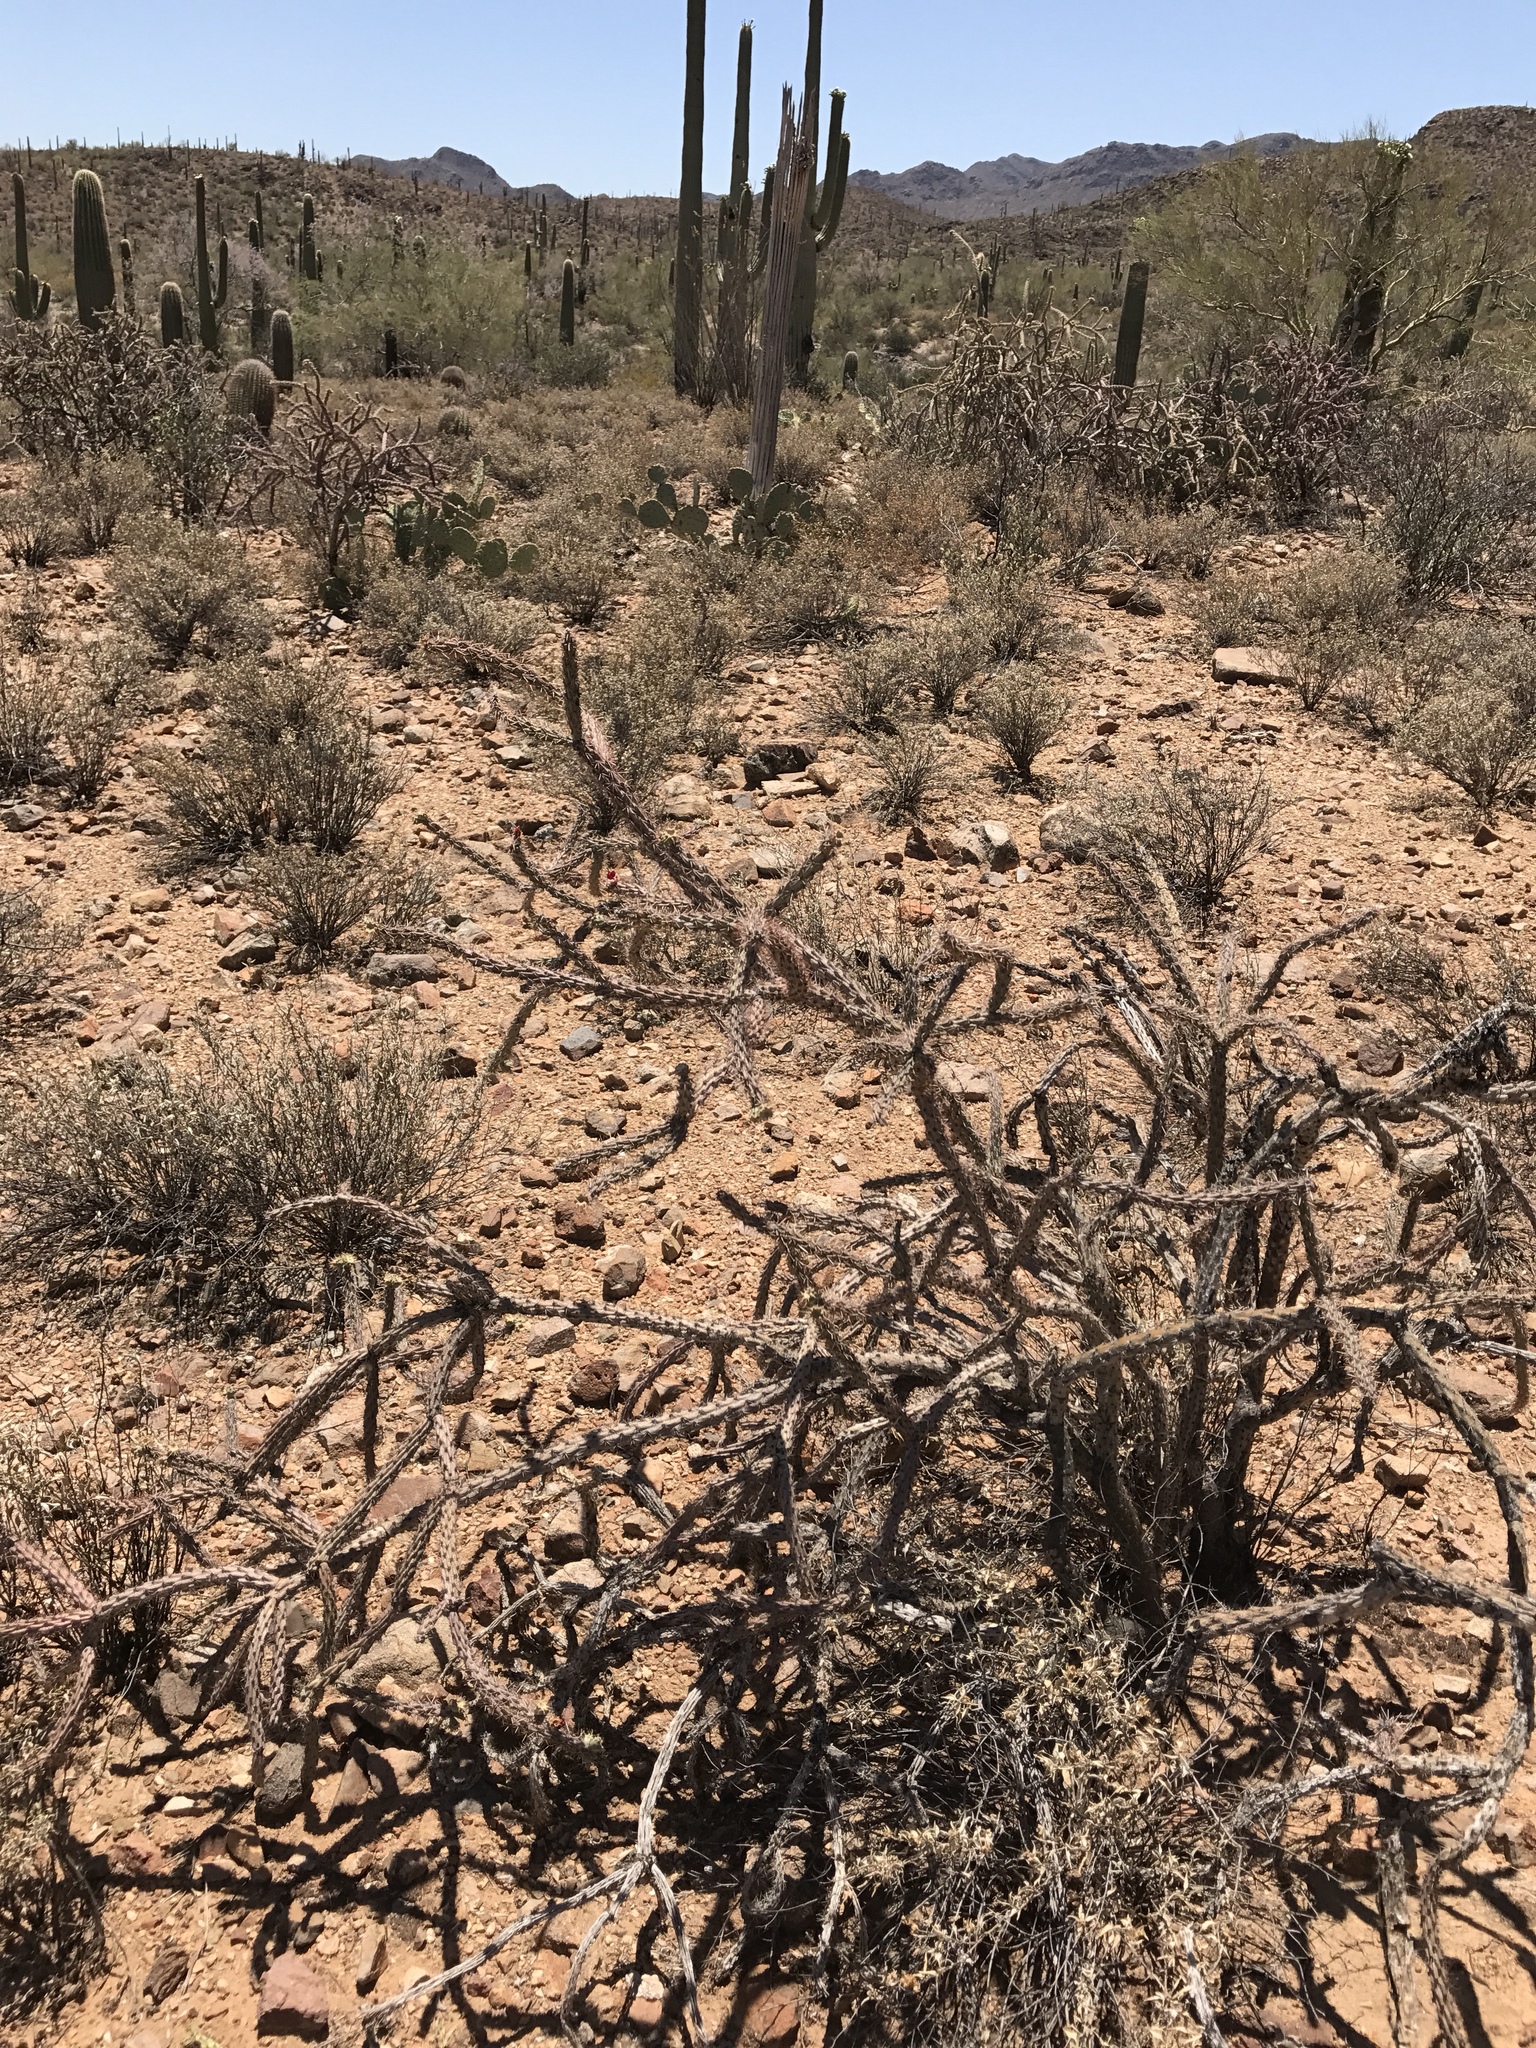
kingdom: Plantae
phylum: Tracheophyta
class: Magnoliopsida
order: Caryophyllales
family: Cactaceae
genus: Cylindropuntia
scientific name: Cylindropuntia acanthocarpa
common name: Buckhorn cholla
